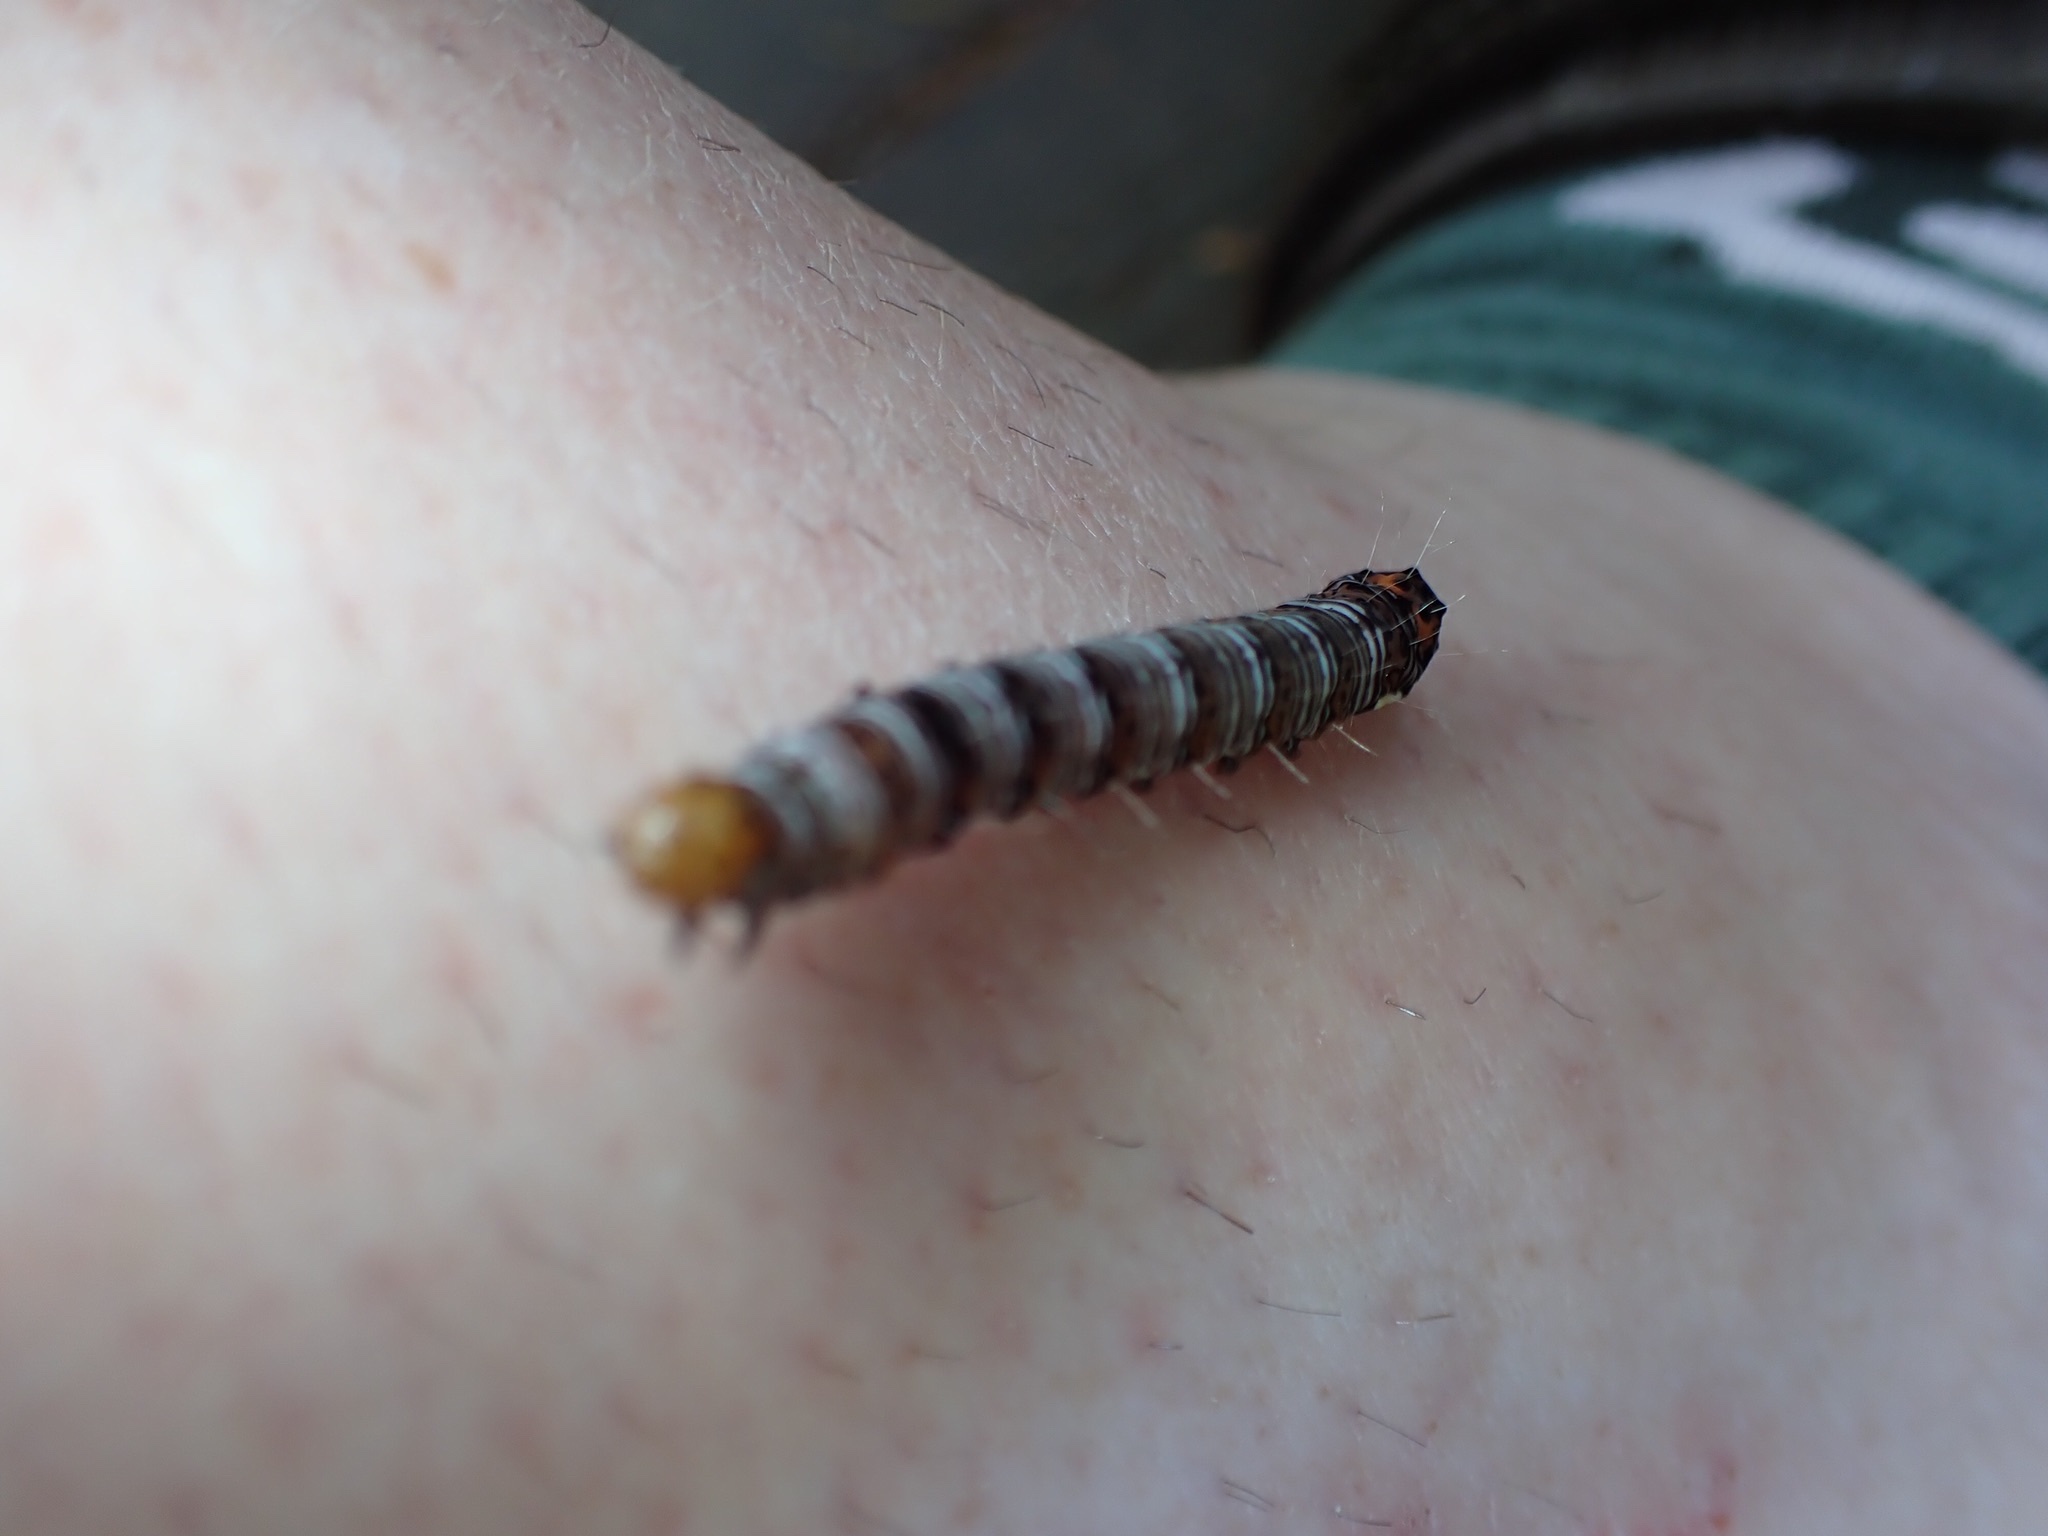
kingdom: Animalia
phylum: Arthropoda
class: Insecta
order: Lepidoptera
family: Noctuidae
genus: Alypia
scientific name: Alypia octomaculata
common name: Eight-spotted forester
